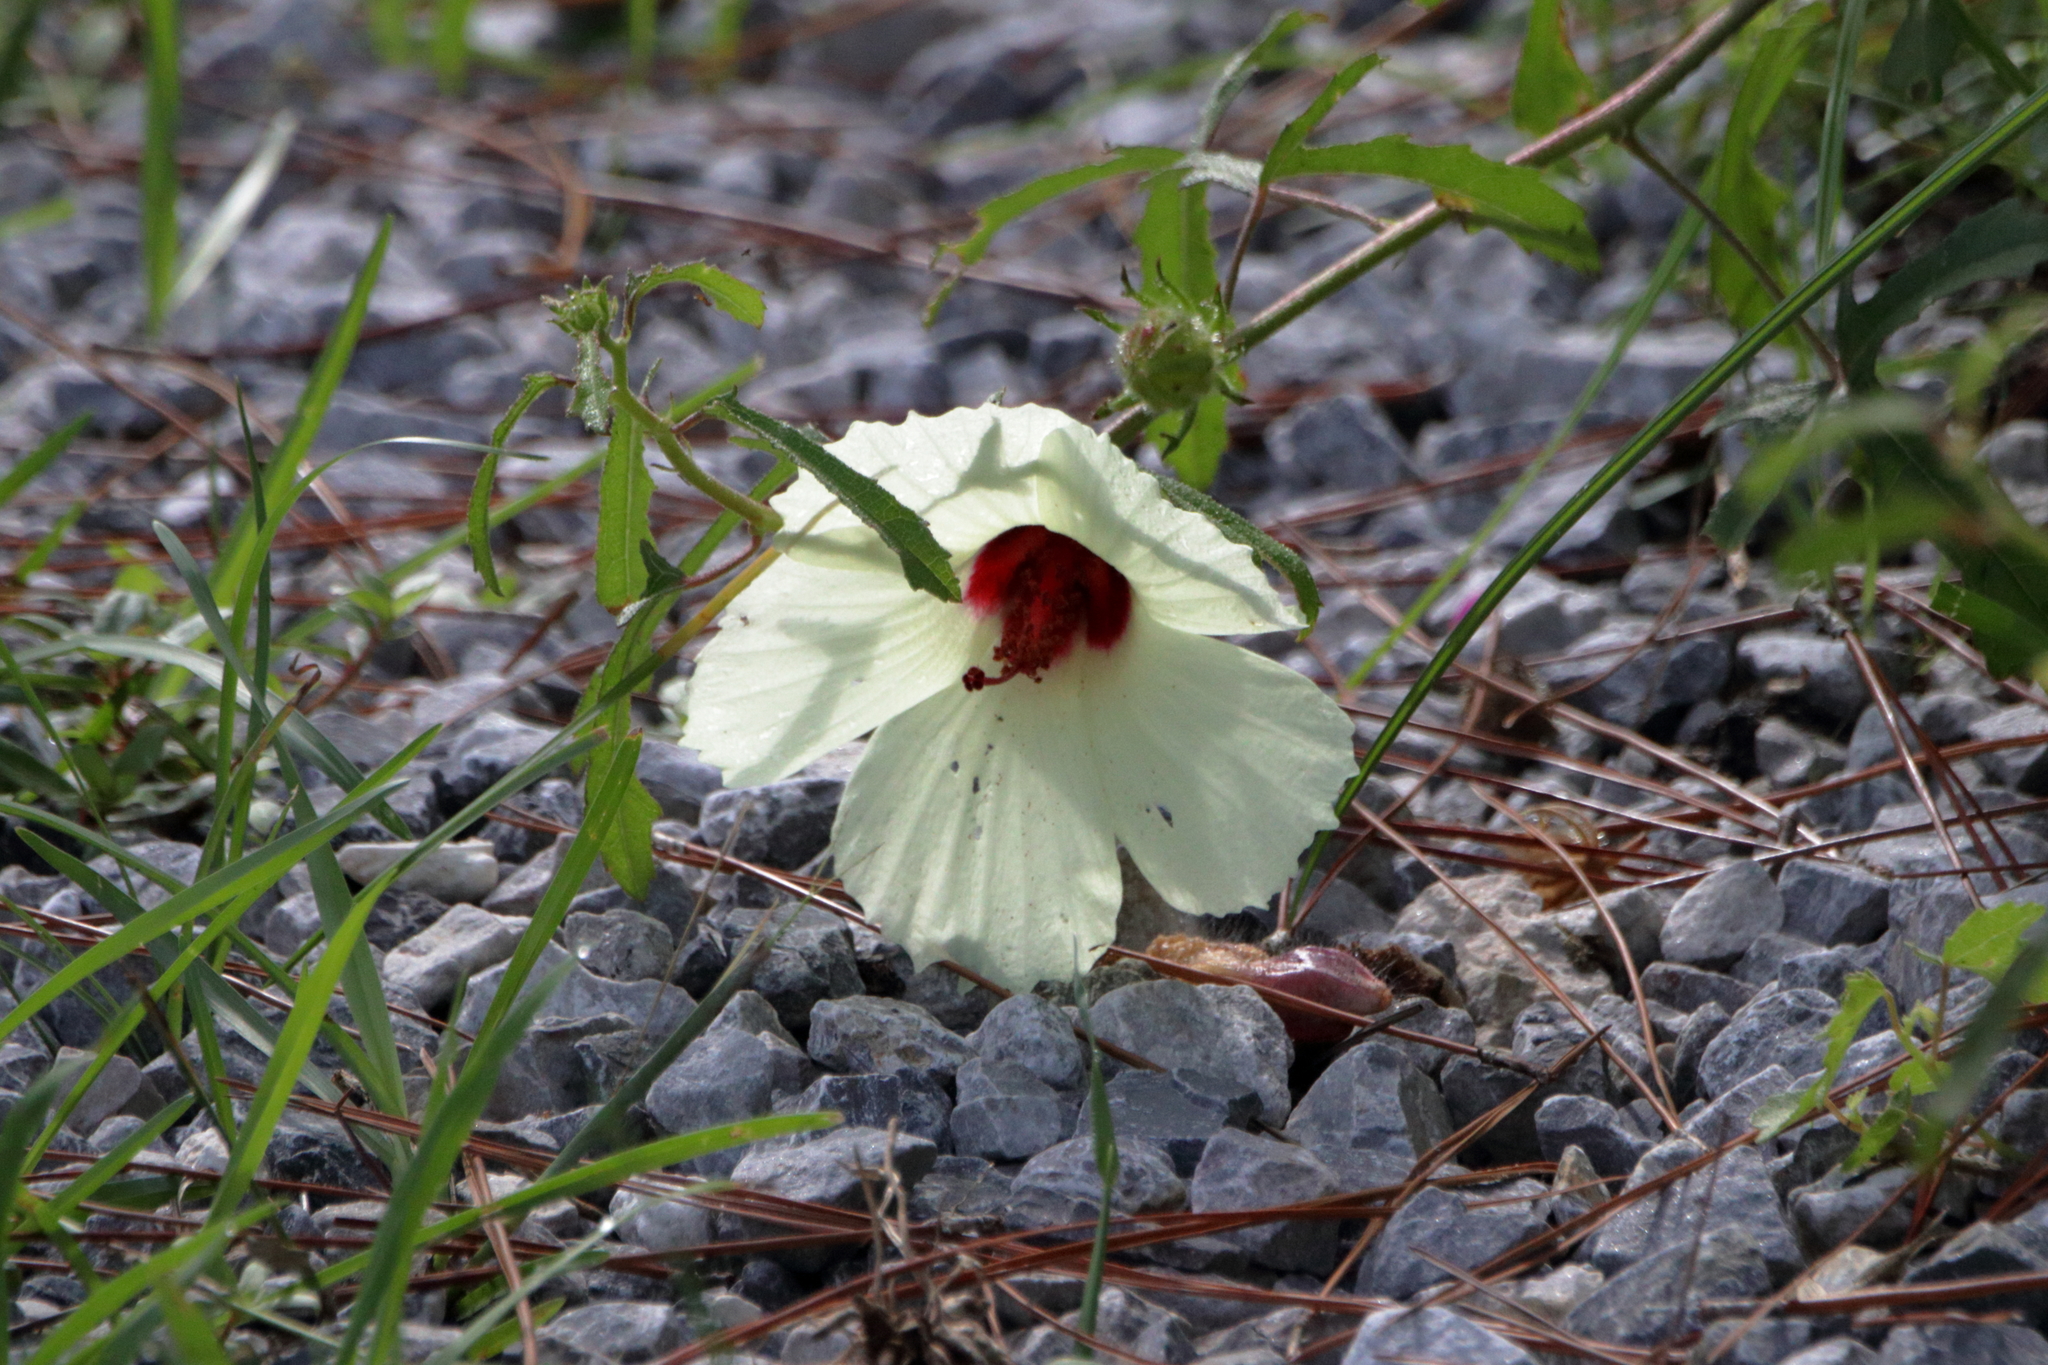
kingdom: Plantae
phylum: Tracheophyta
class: Magnoliopsida
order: Malvales
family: Malvaceae
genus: Hibiscus
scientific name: Hibiscus aculeatus
